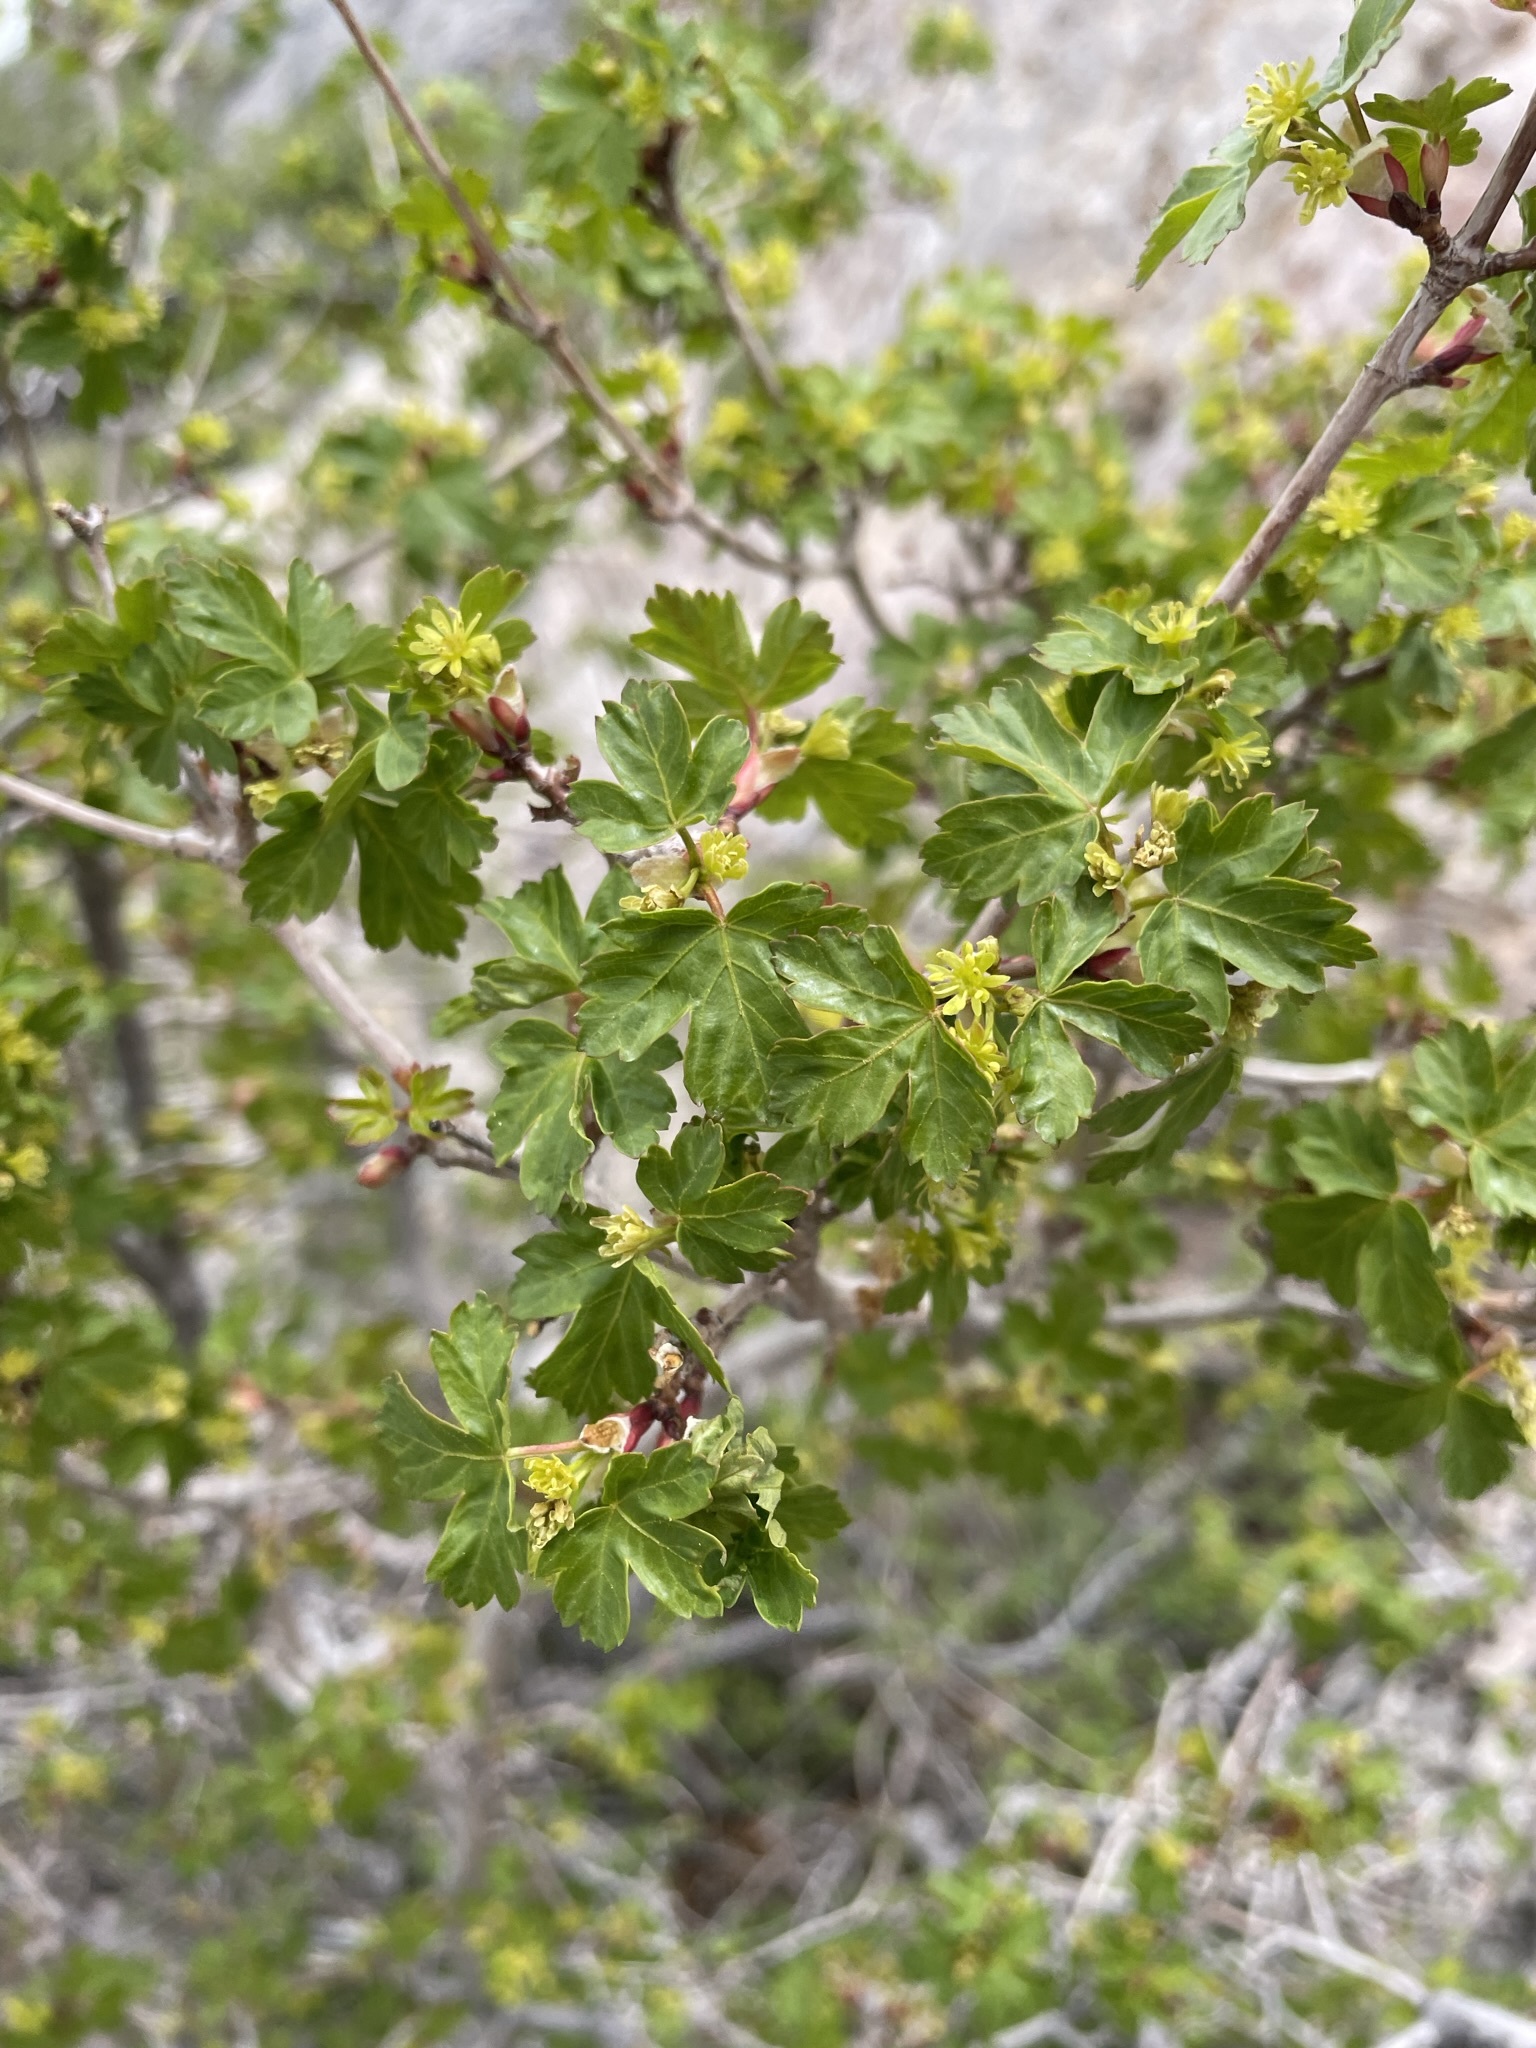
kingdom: Plantae
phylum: Tracheophyta
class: Magnoliopsida
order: Sapindales
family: Sapindaceae
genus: Acer
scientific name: Acer glabrum
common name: Rocky mountain maple
